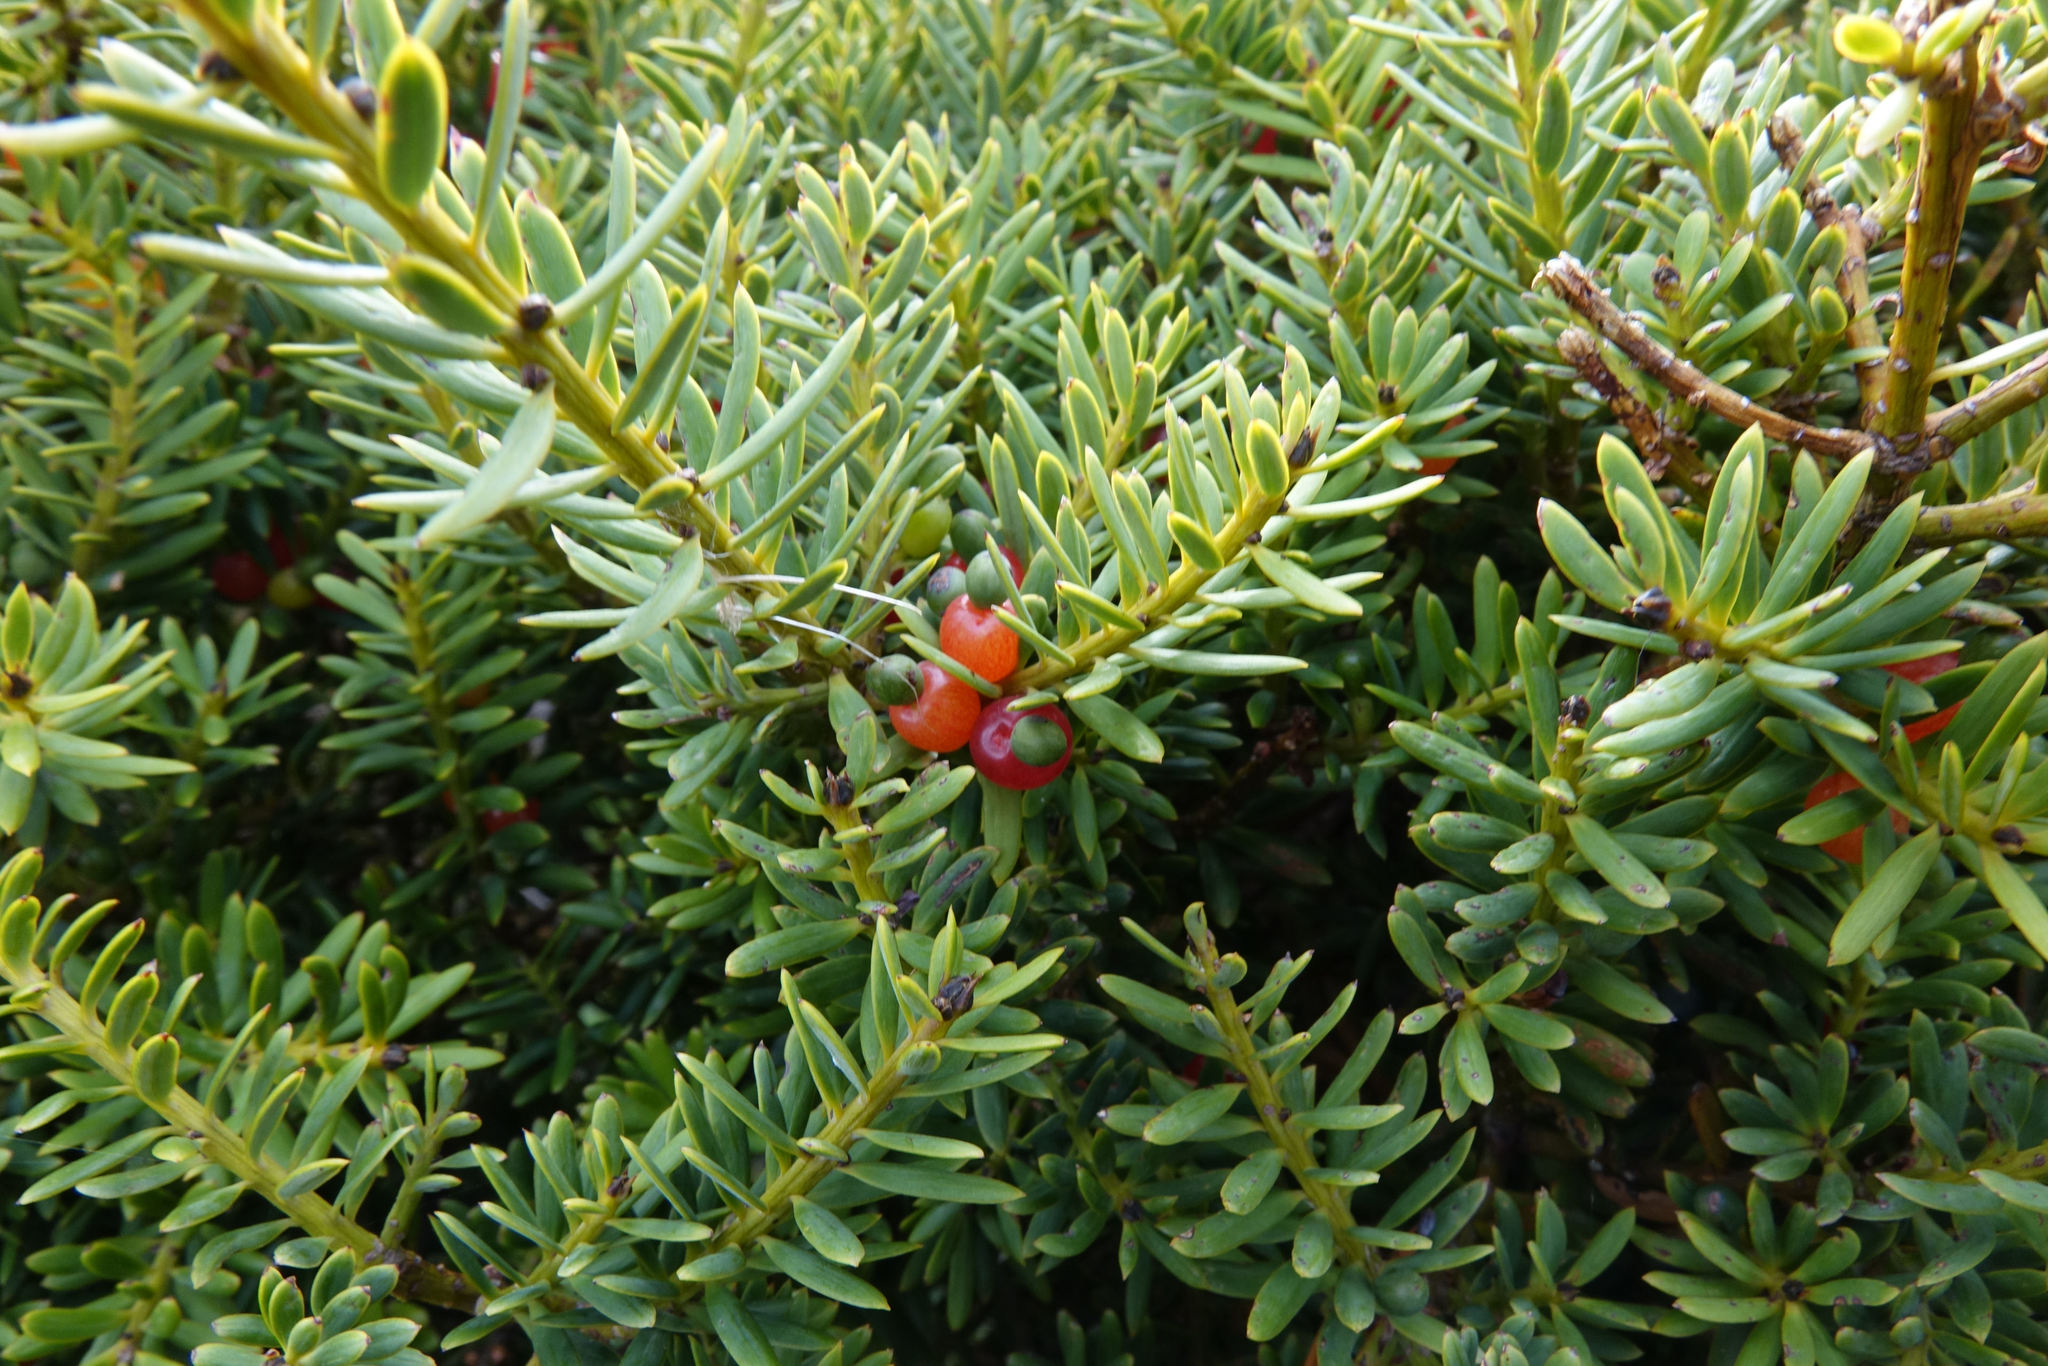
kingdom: Plantae
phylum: Tracheophyta
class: Pinopsida
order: Pinales
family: Podocarpaceae
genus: Podocarpus
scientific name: Podocarpus laetus
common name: Hall's totara
